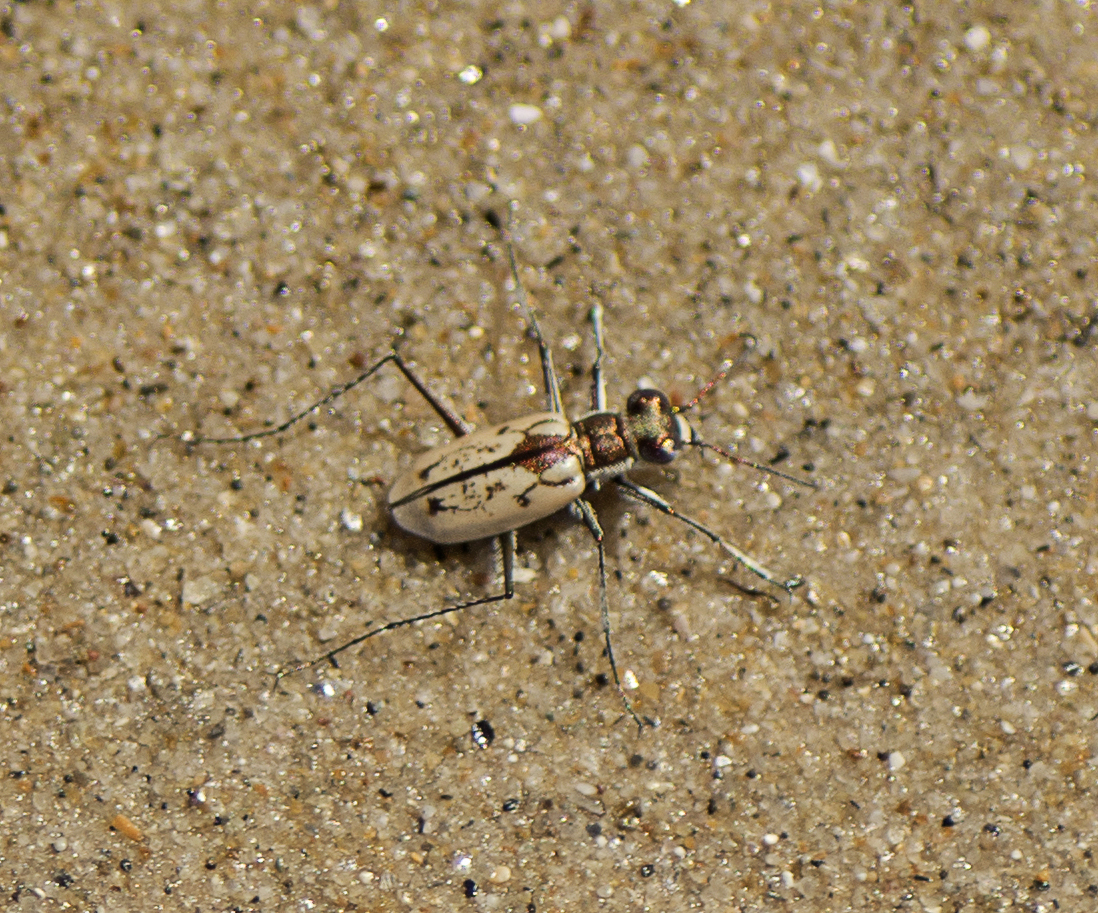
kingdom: Animalia
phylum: Arthropoda
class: Insecta
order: Coleoptera
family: Carabidae
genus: Hypaetha
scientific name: Hypaetha upsilon
